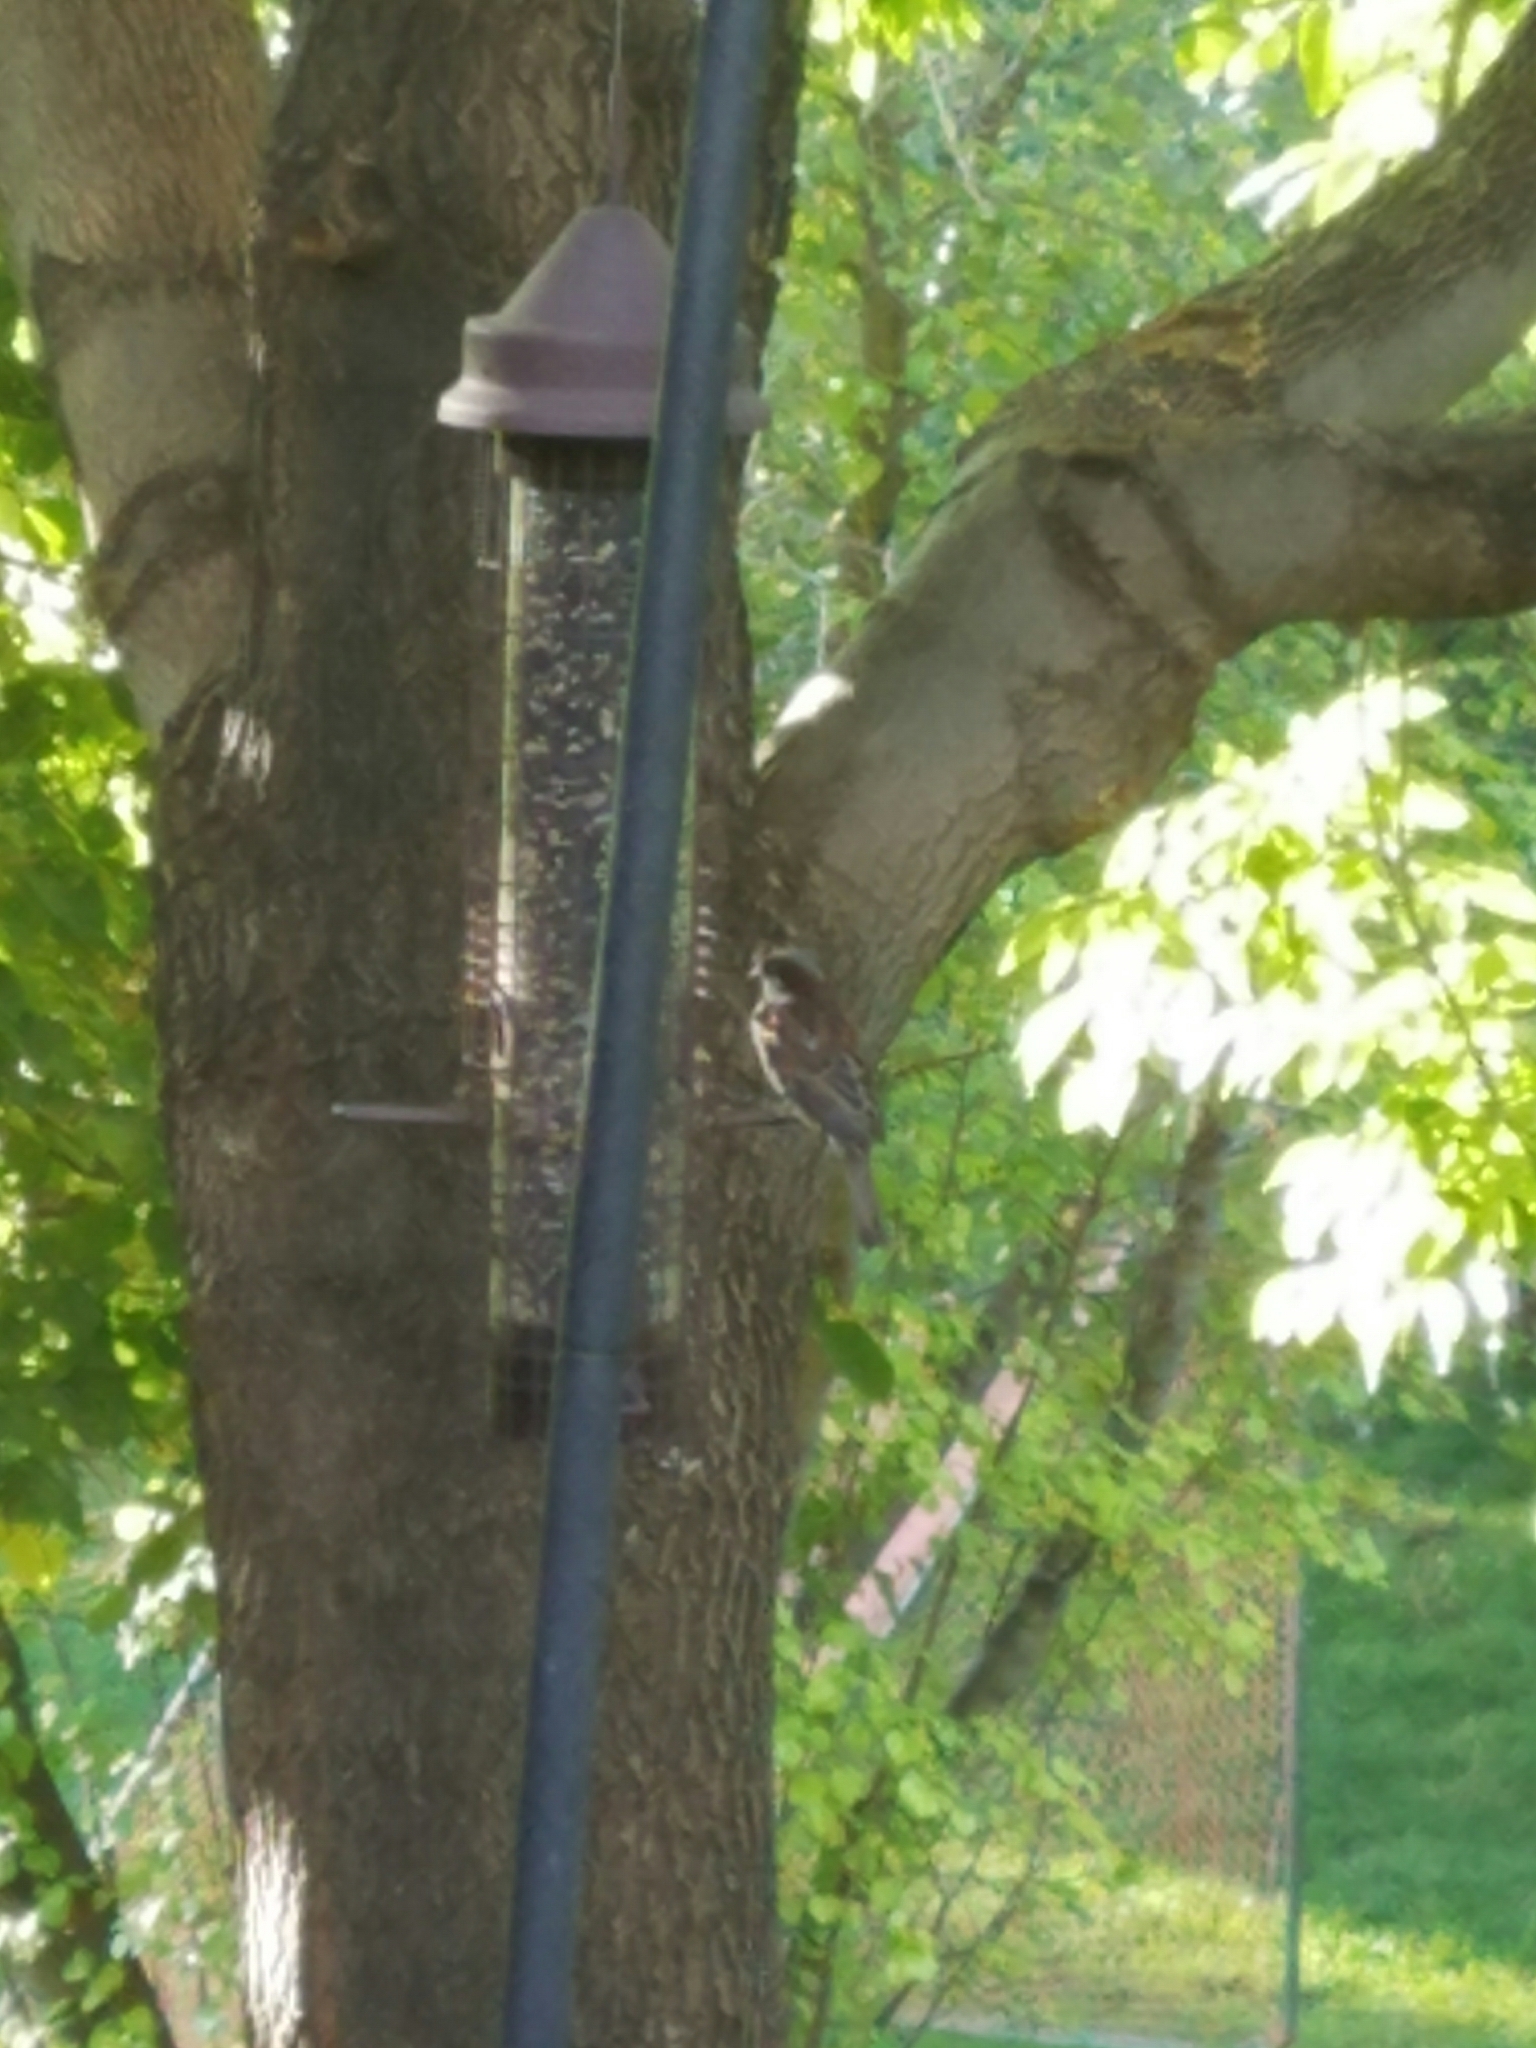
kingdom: Animalia
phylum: Chordata
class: Aves
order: Passeriformes
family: Passeridae
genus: Passer
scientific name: Passer domesticus
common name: House sparrow
